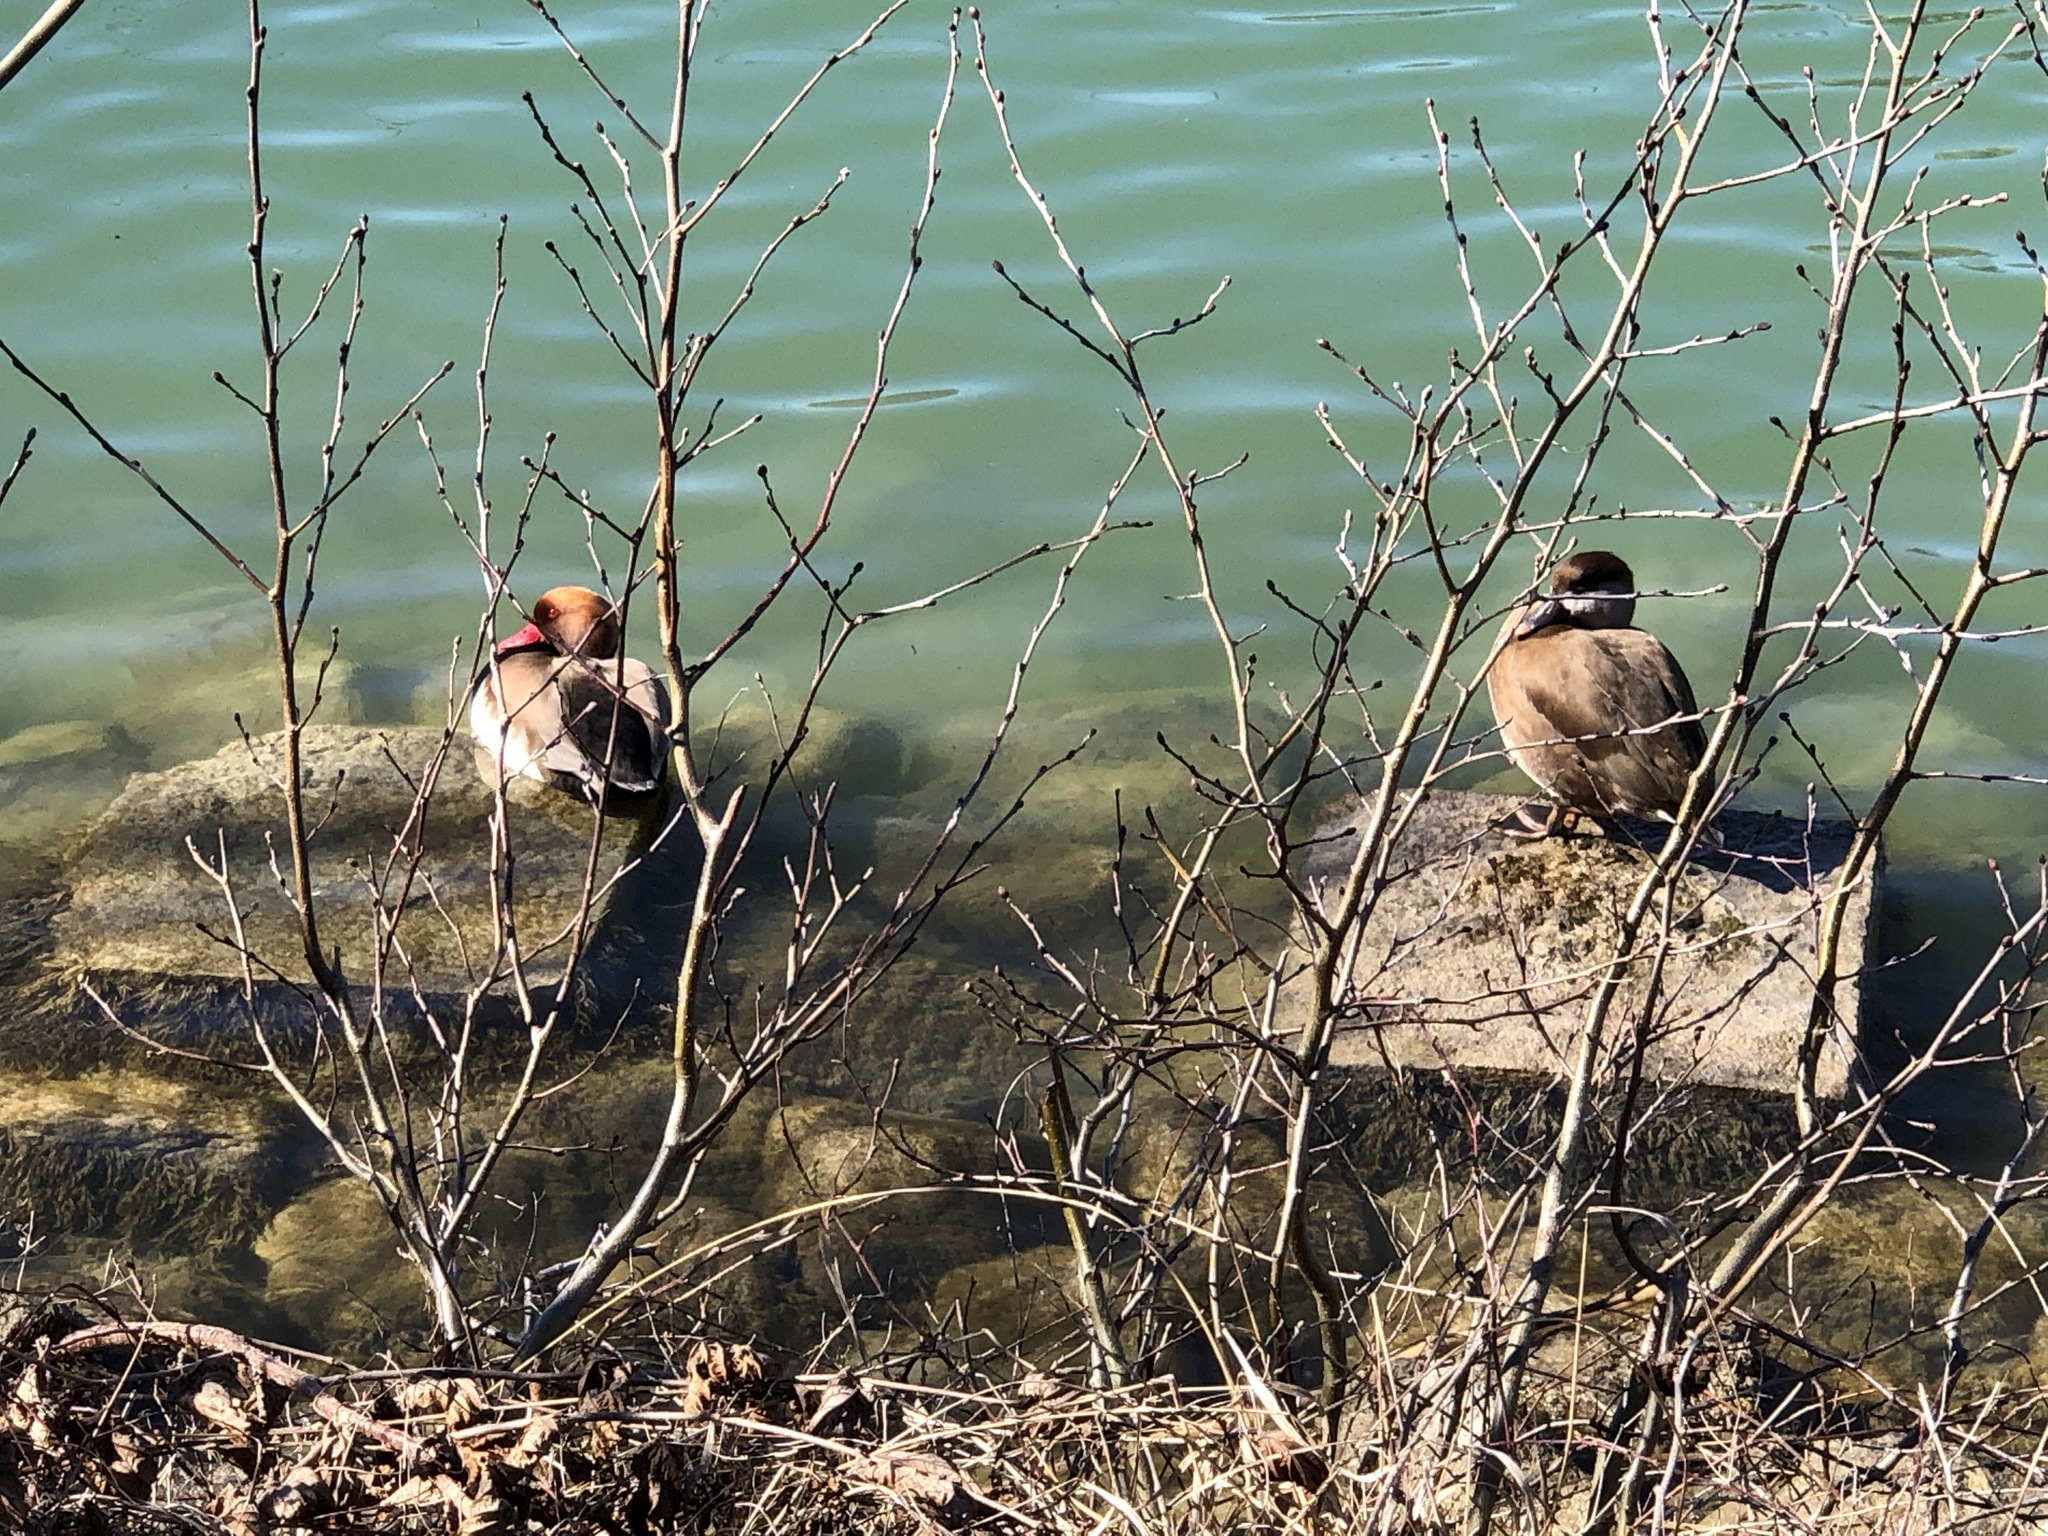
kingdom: Animalia
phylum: Chordata
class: Aves
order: Anseriformes
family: Anatidae
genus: Netta
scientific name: Netta rufina
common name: Red-crested pochard
